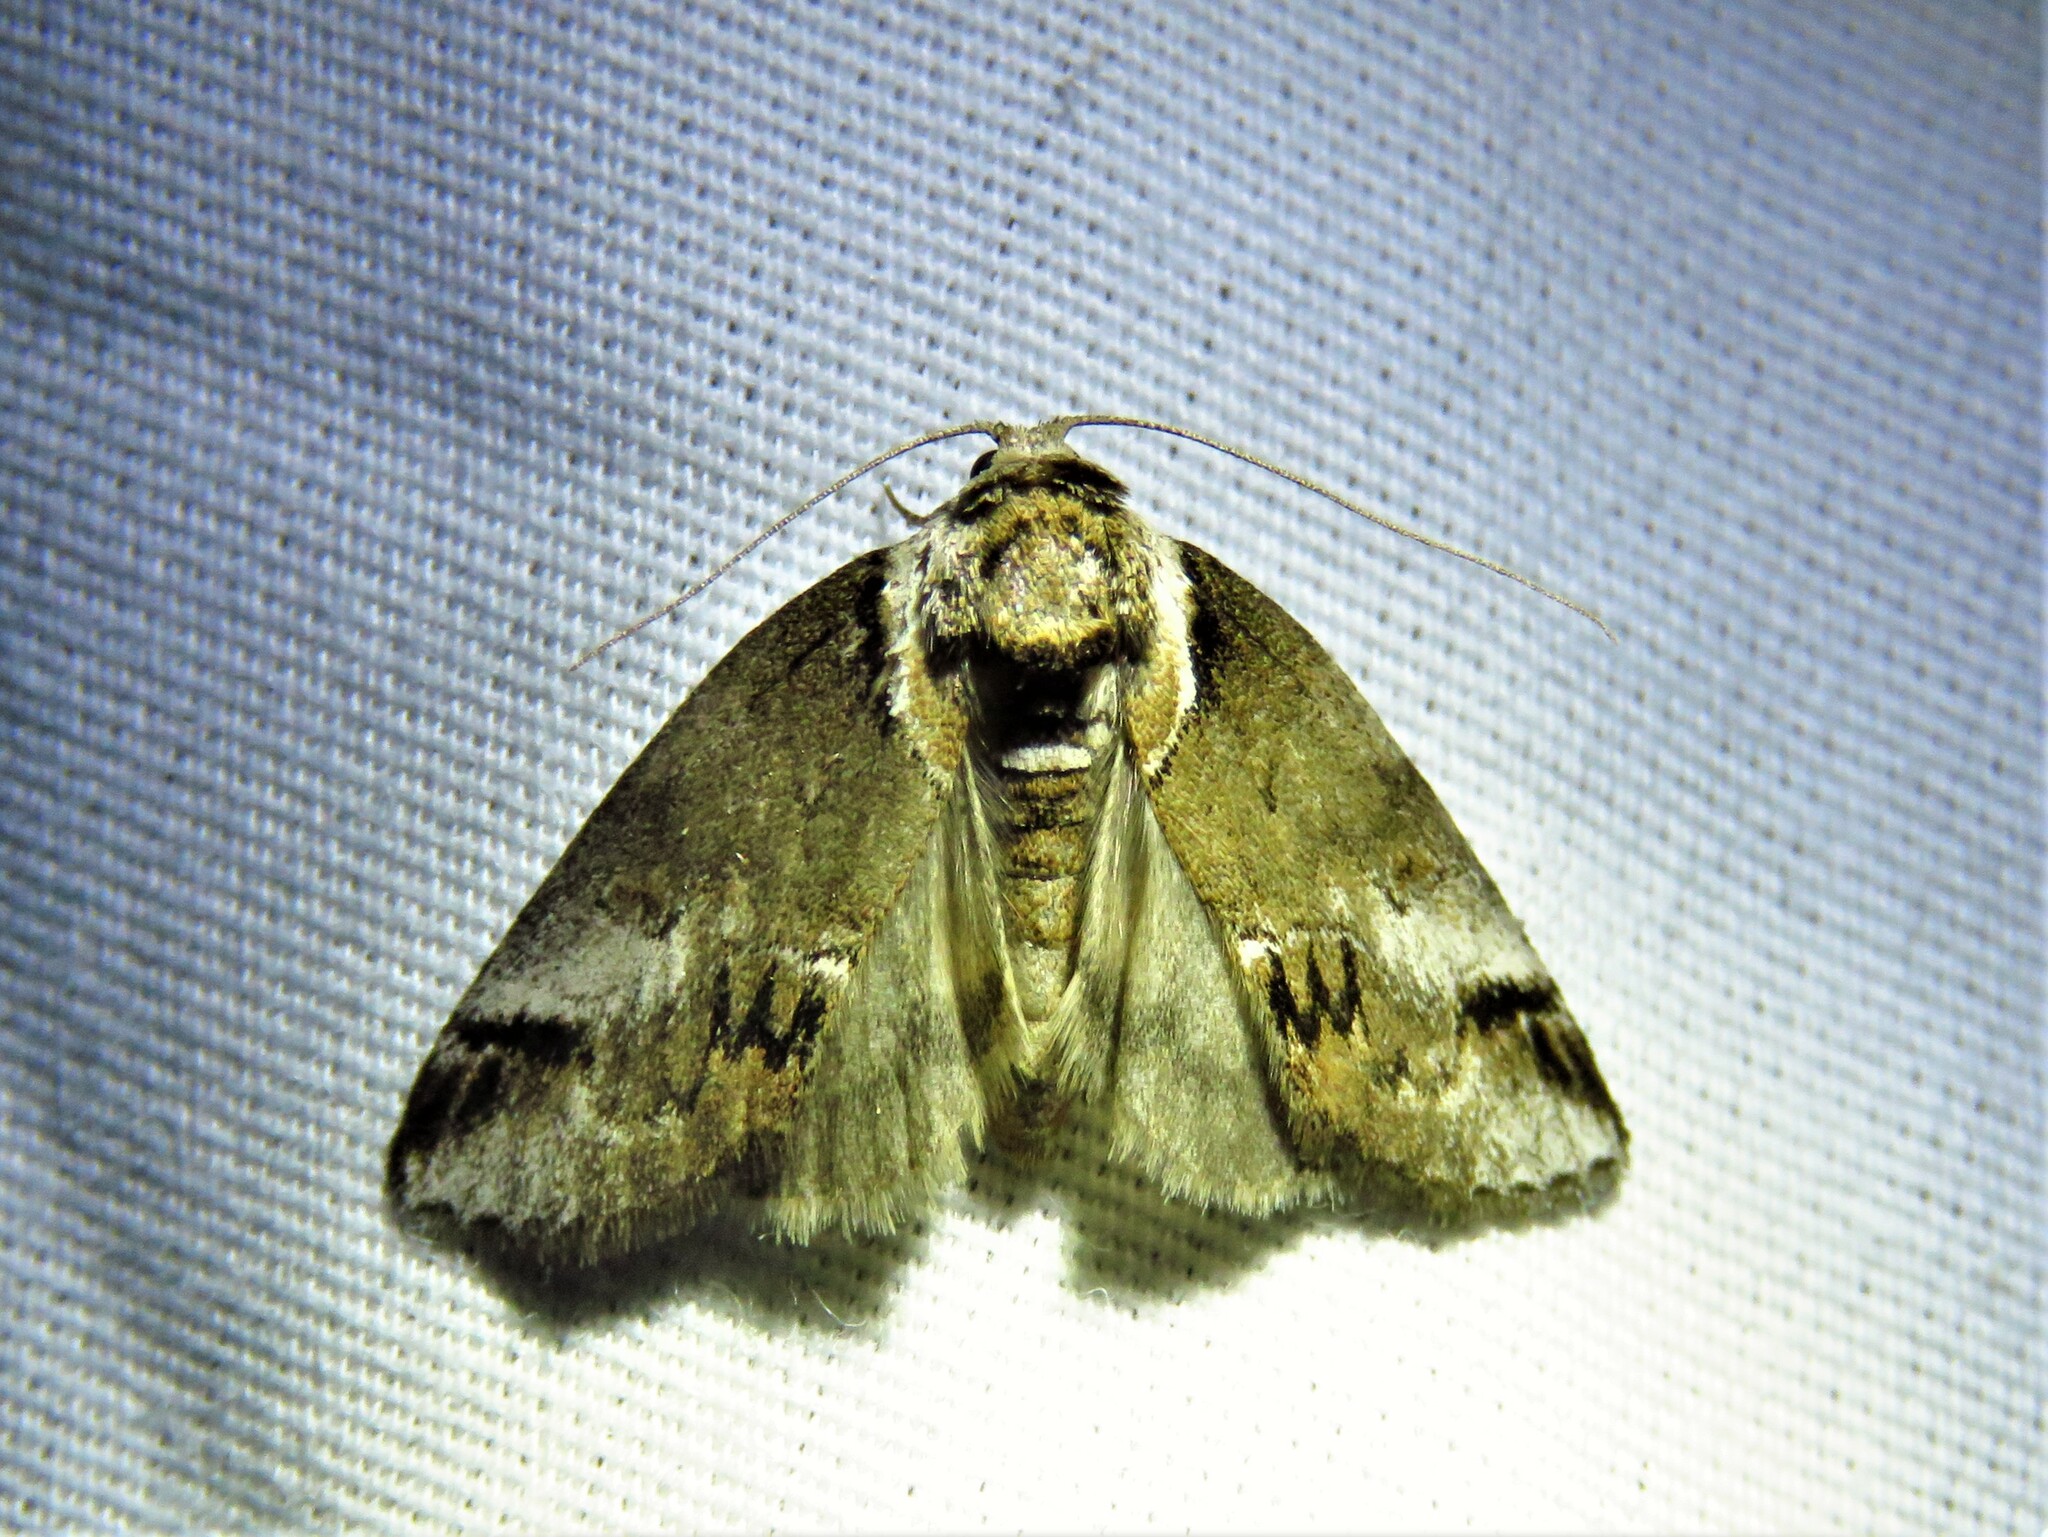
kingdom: Animalia
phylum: Arthropoda
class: Insecta
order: Lepidoptera
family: Nolidae
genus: Baileya
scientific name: Baileya australis
